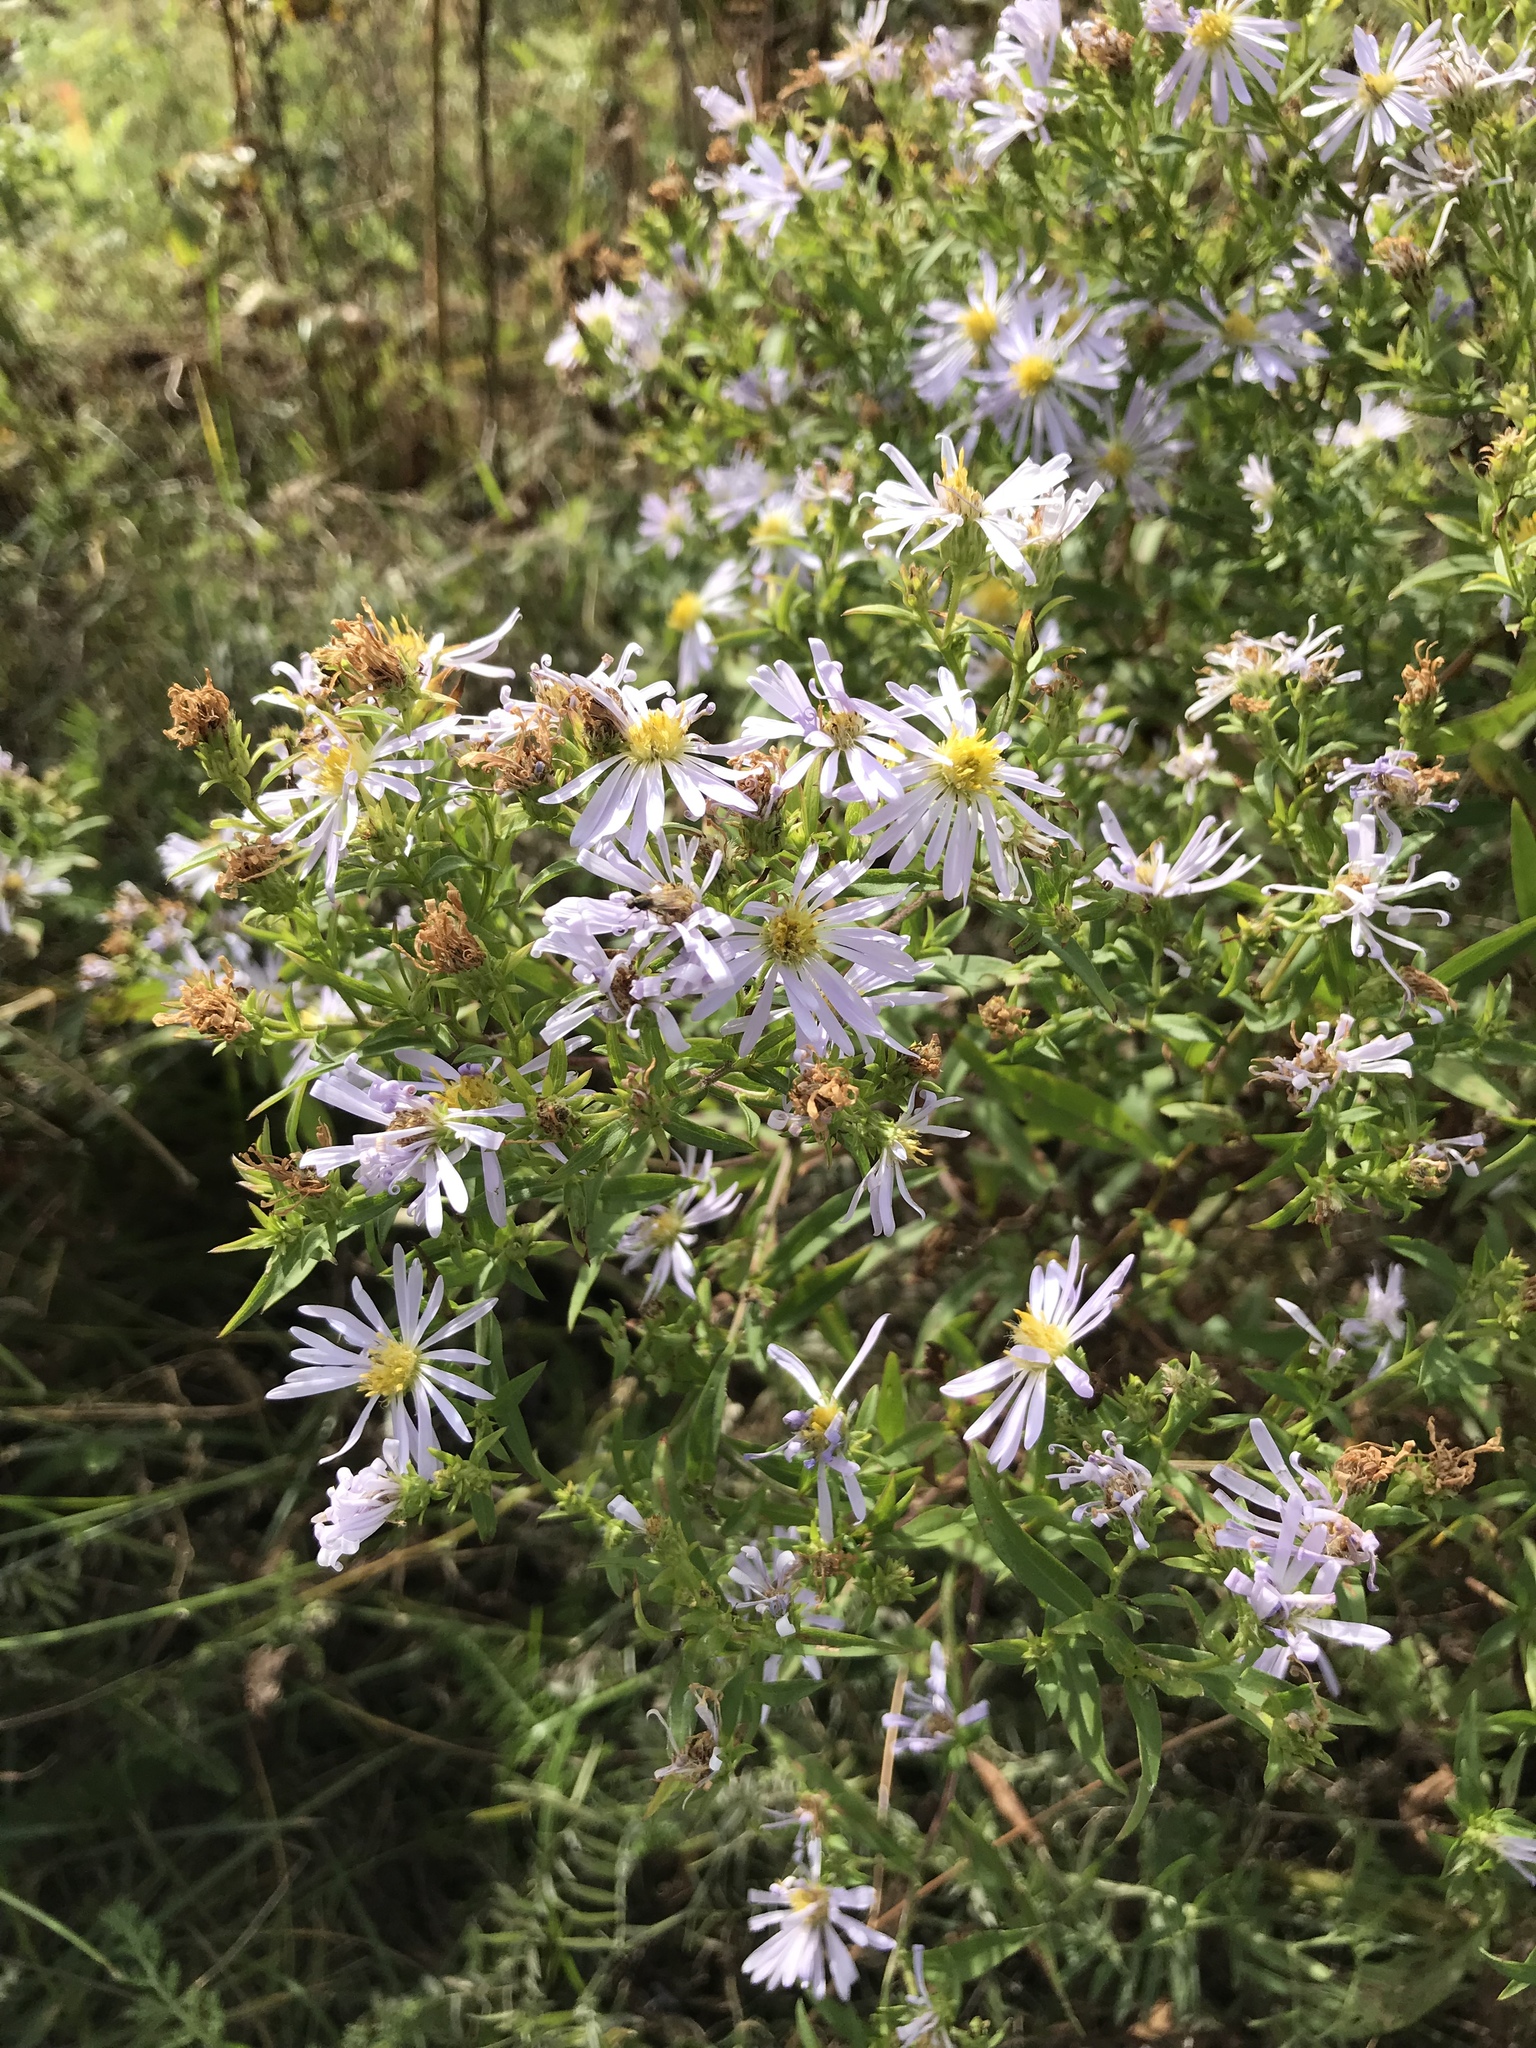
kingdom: Plantae
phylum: Tracheophyta
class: Magnoliopsida
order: Asterales
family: Asteraceae
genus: Symphyotrichum
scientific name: Symphyotrichum novi-belgii
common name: Michaelmas daisy
